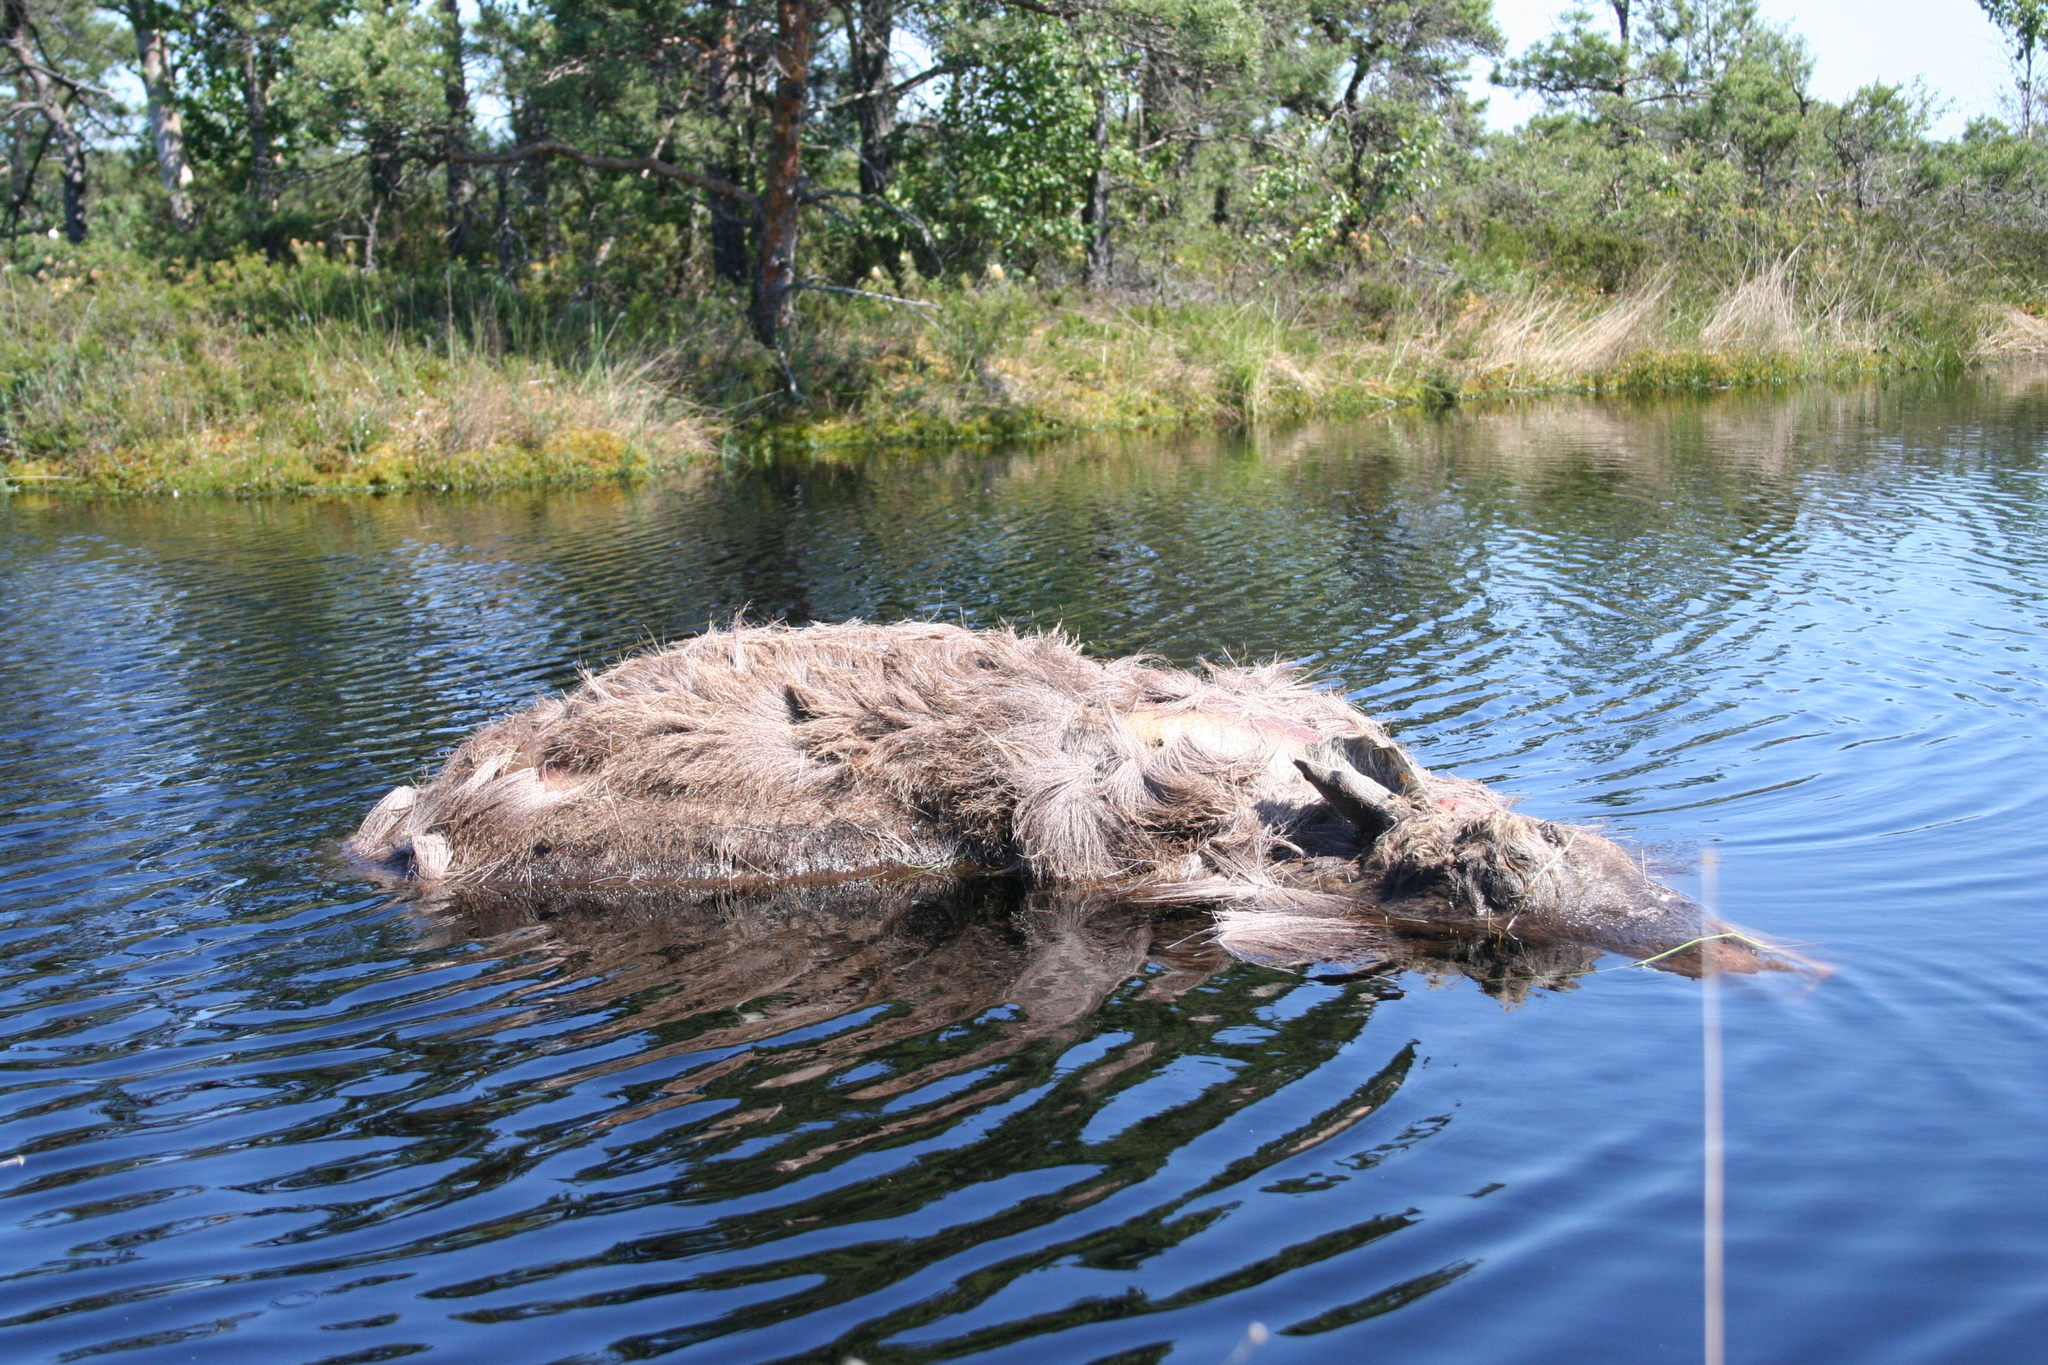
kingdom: Animalia
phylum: Chordata
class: Mammalia
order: Artiodactyla
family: Cervidae
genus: Alces
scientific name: Alces alces
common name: Moose
